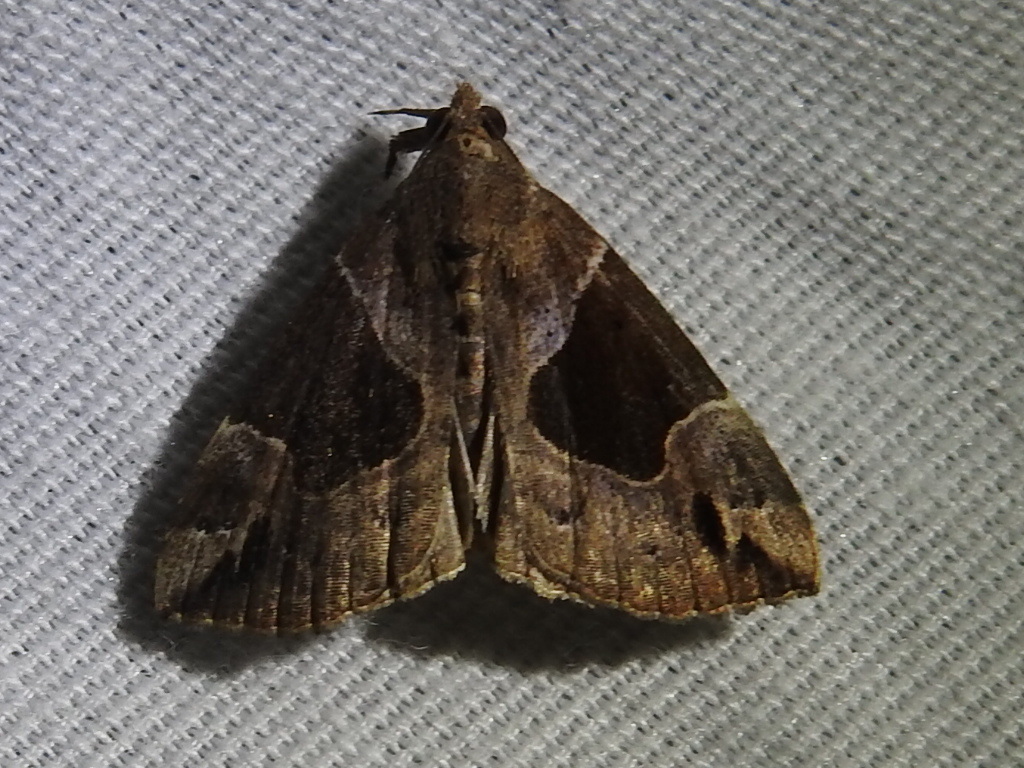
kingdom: Animalia
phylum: Arthropoda
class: Insecta
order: Lepidoptera
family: Erebidae
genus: Hypena
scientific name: Hypena manalis
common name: Flowing-line bomolocha moth
